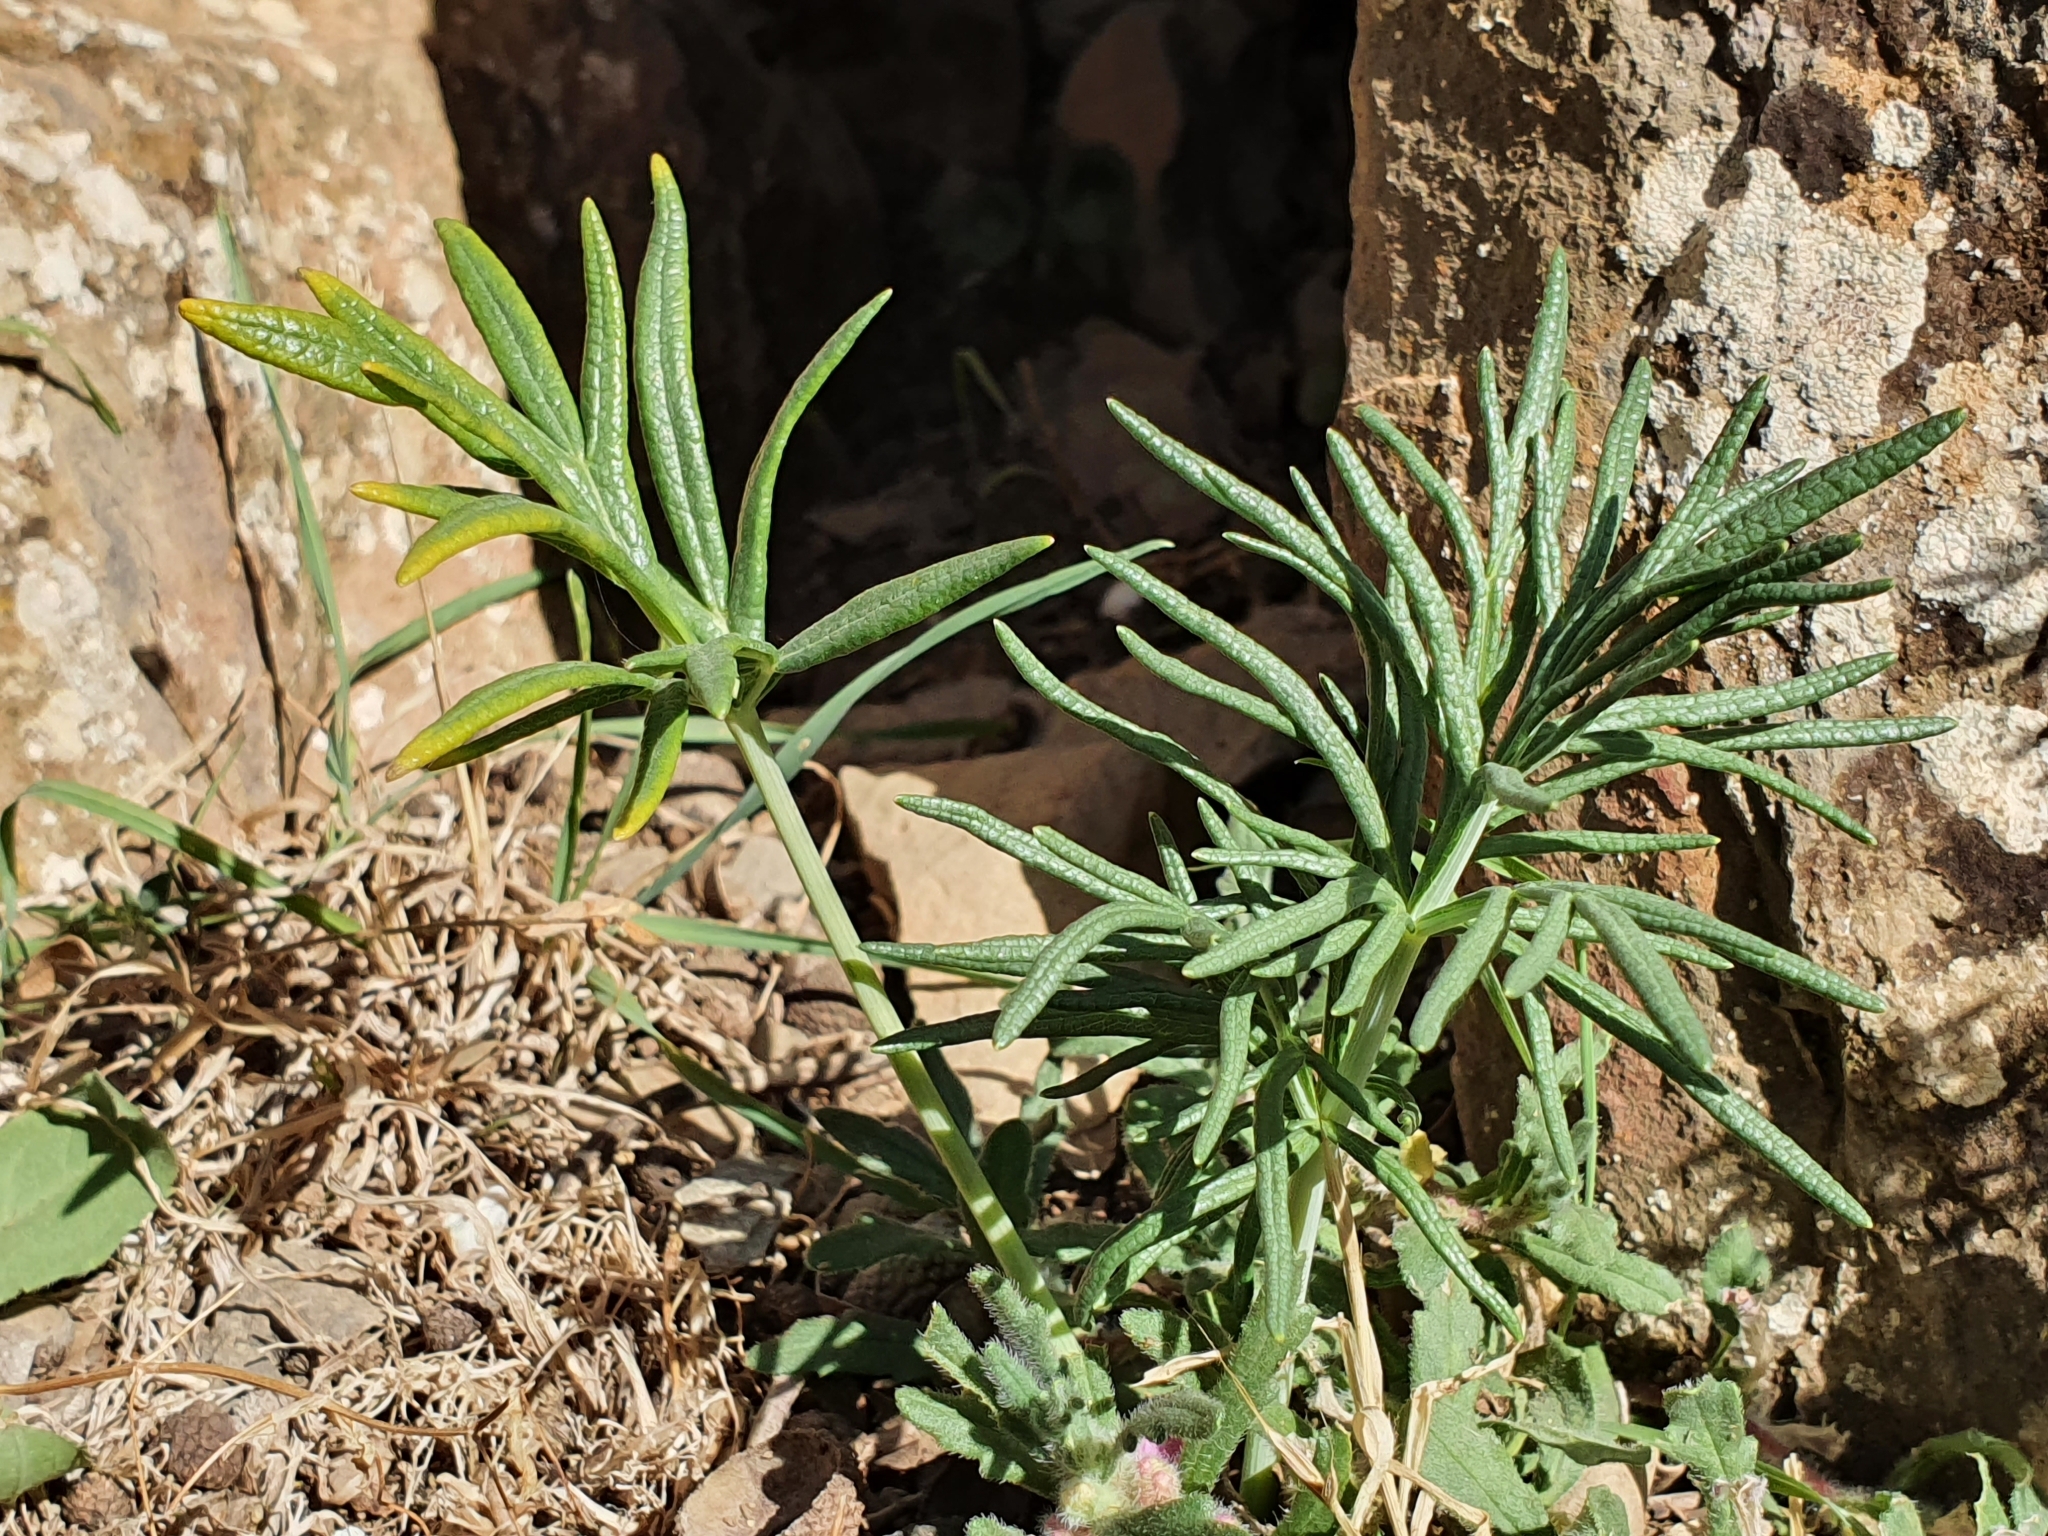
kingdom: Plantae
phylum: Tracheophyta
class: Magnoliopsida
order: Apiales
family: Apiaceae
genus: Thapsia
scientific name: Thapsia garganica
